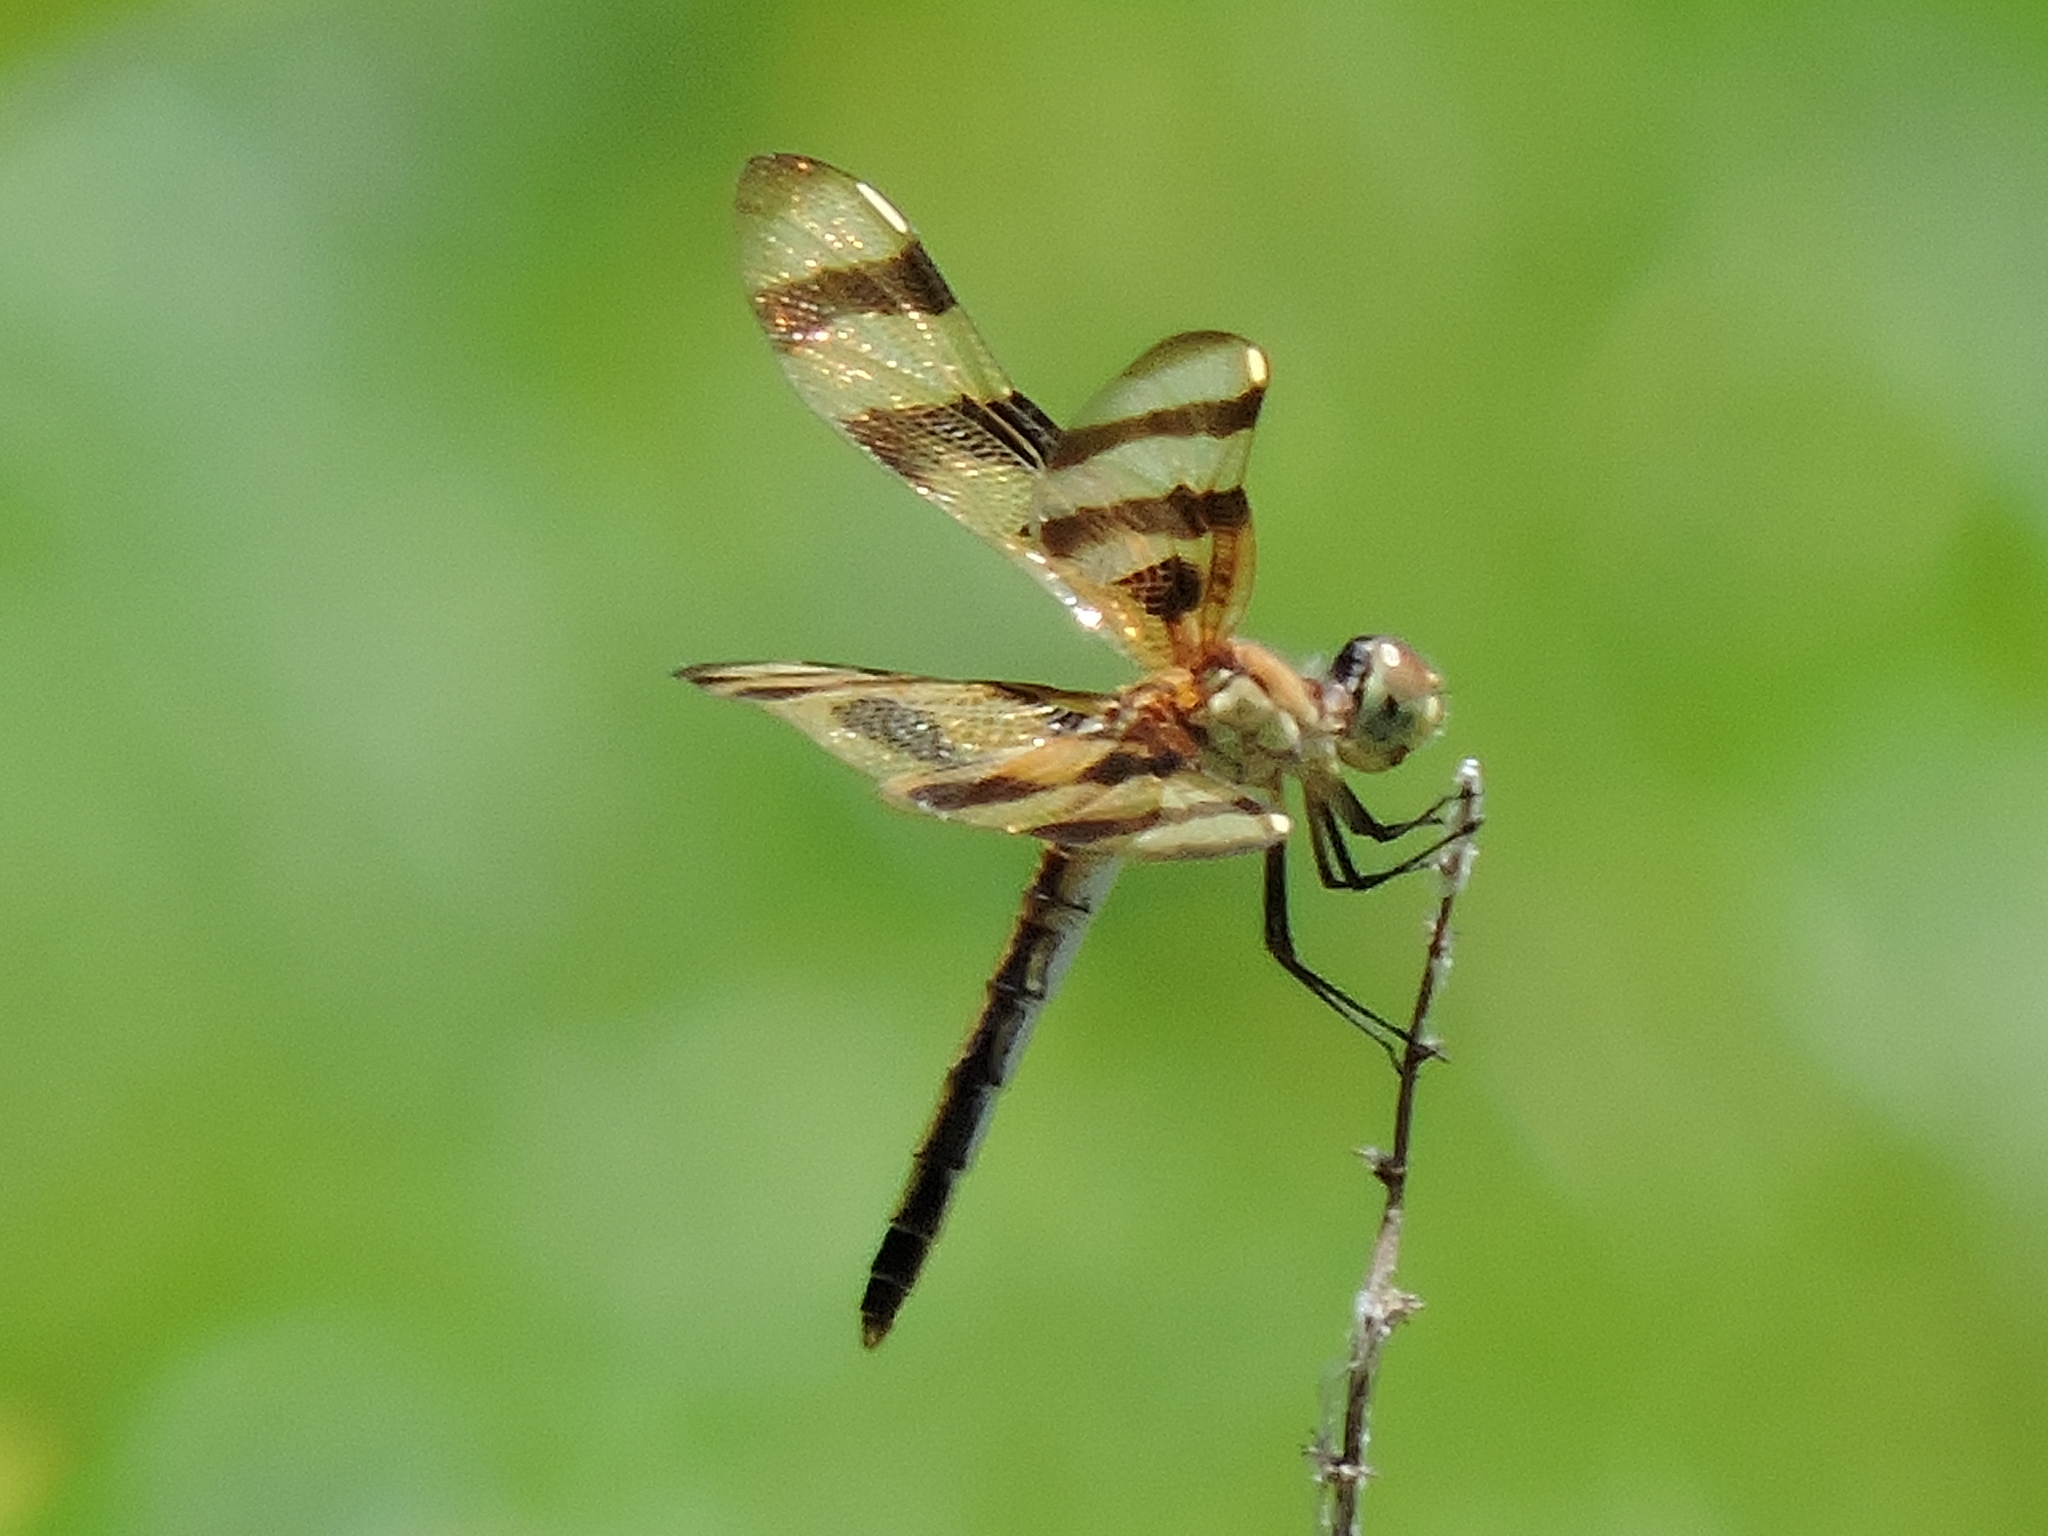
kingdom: Animalia
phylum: Arthropoda
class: Insecta
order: Odonata
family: Libellulidae
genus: Celithemis
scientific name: Celithemis eponina
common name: Halloween pennant
